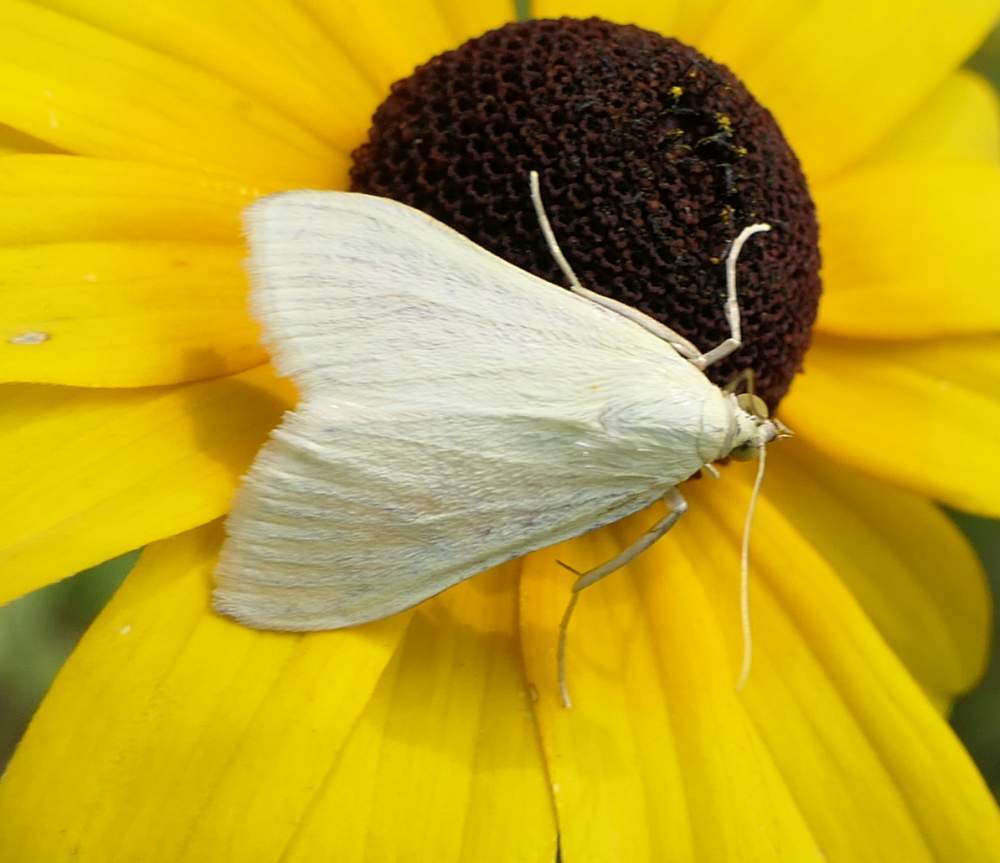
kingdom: Animalia
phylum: Arthropoda
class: Insecta
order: Lepidoptera
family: Crambidae
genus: Sitochroa
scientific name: Sitochroa palealis
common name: Greenish-yellow sitochroa moth
